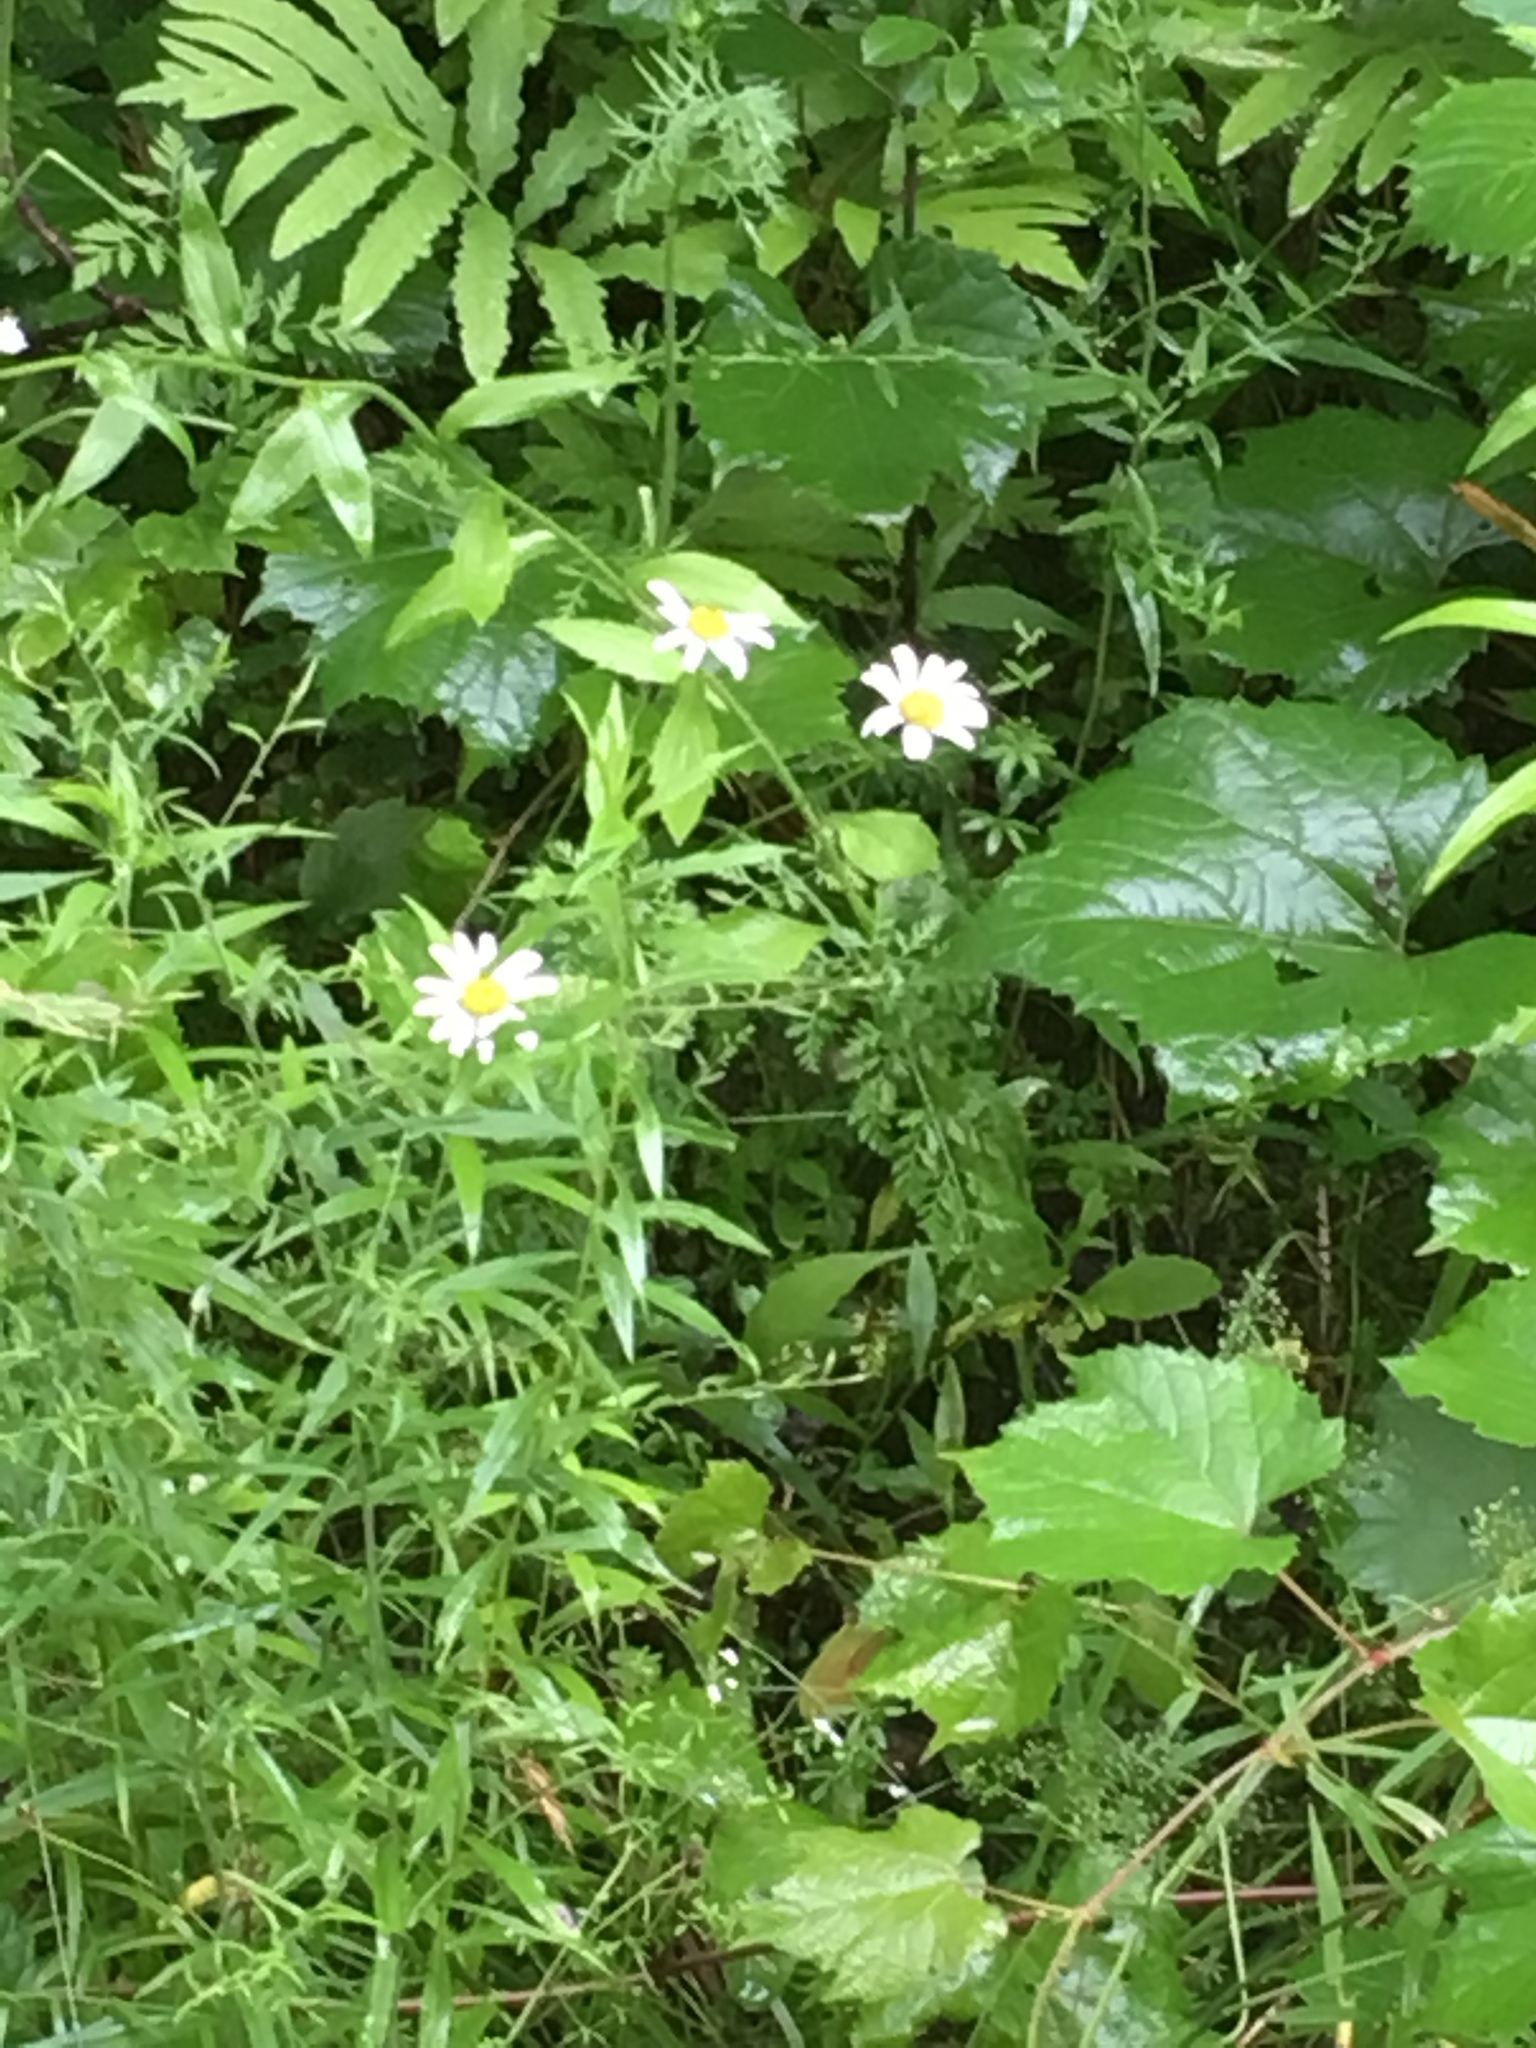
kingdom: Plantae
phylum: Tracheophyta
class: Magnoliopsida
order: Asterales
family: Asteraceae
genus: Leucanthemum
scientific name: Leucanthemum vulgare
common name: Oxeye daisy
